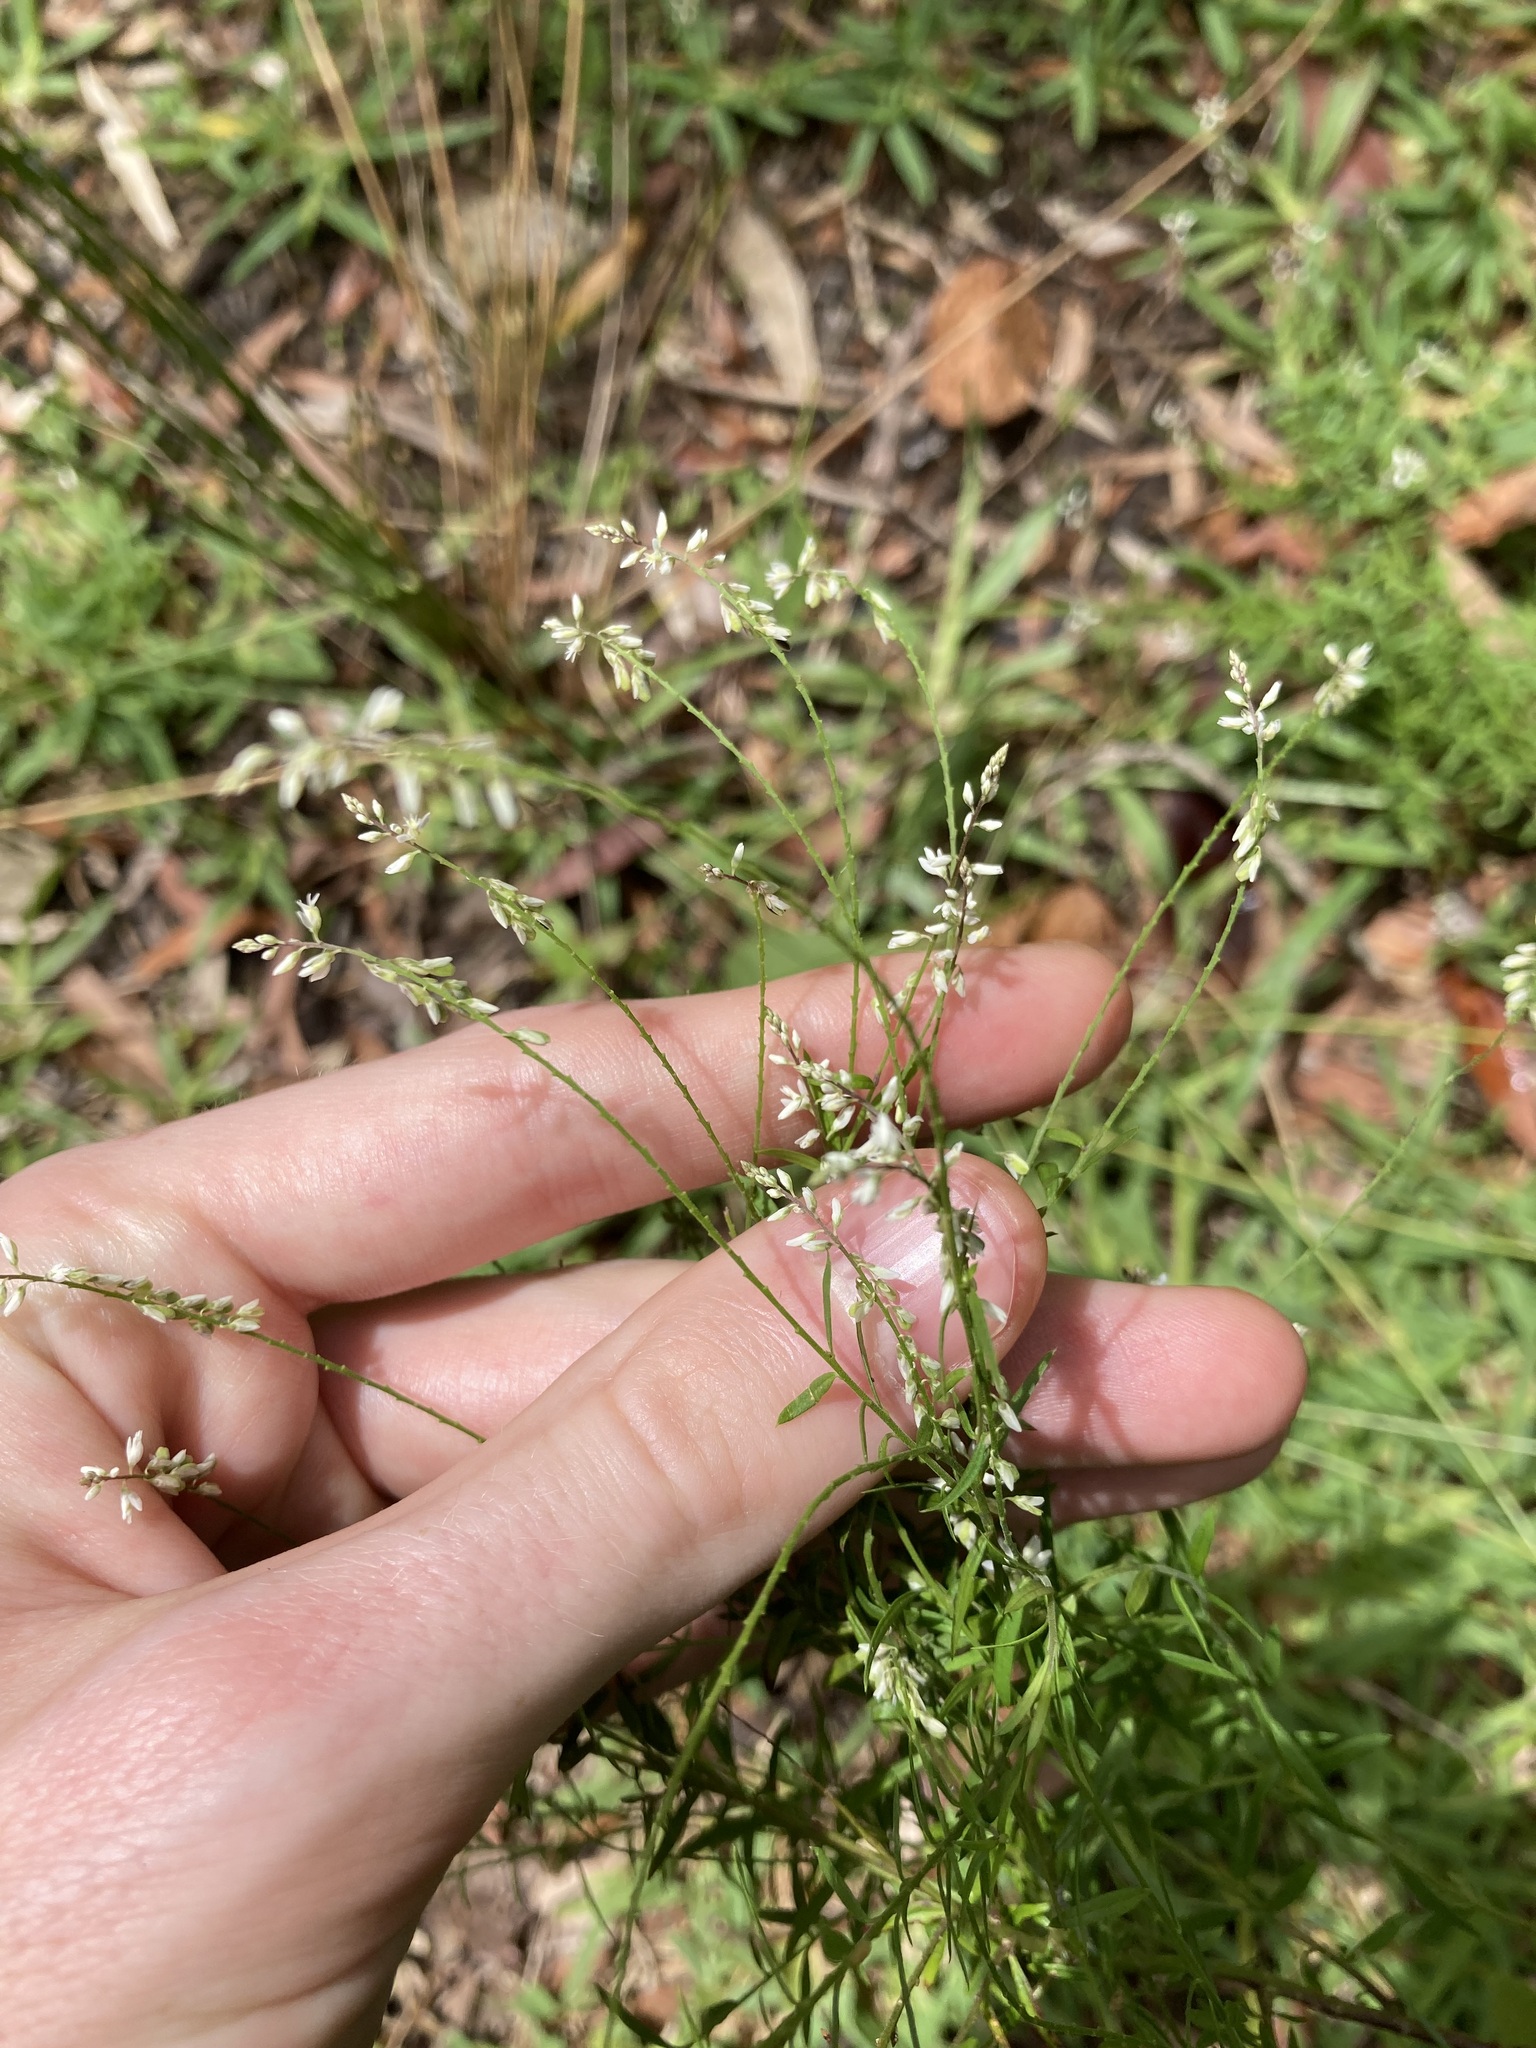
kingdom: Plantae
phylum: Tracheophyta
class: Magnoliopsida
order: Fabales
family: Polygalaceae
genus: Polygala
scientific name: Polygala paniculata
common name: Orosne
